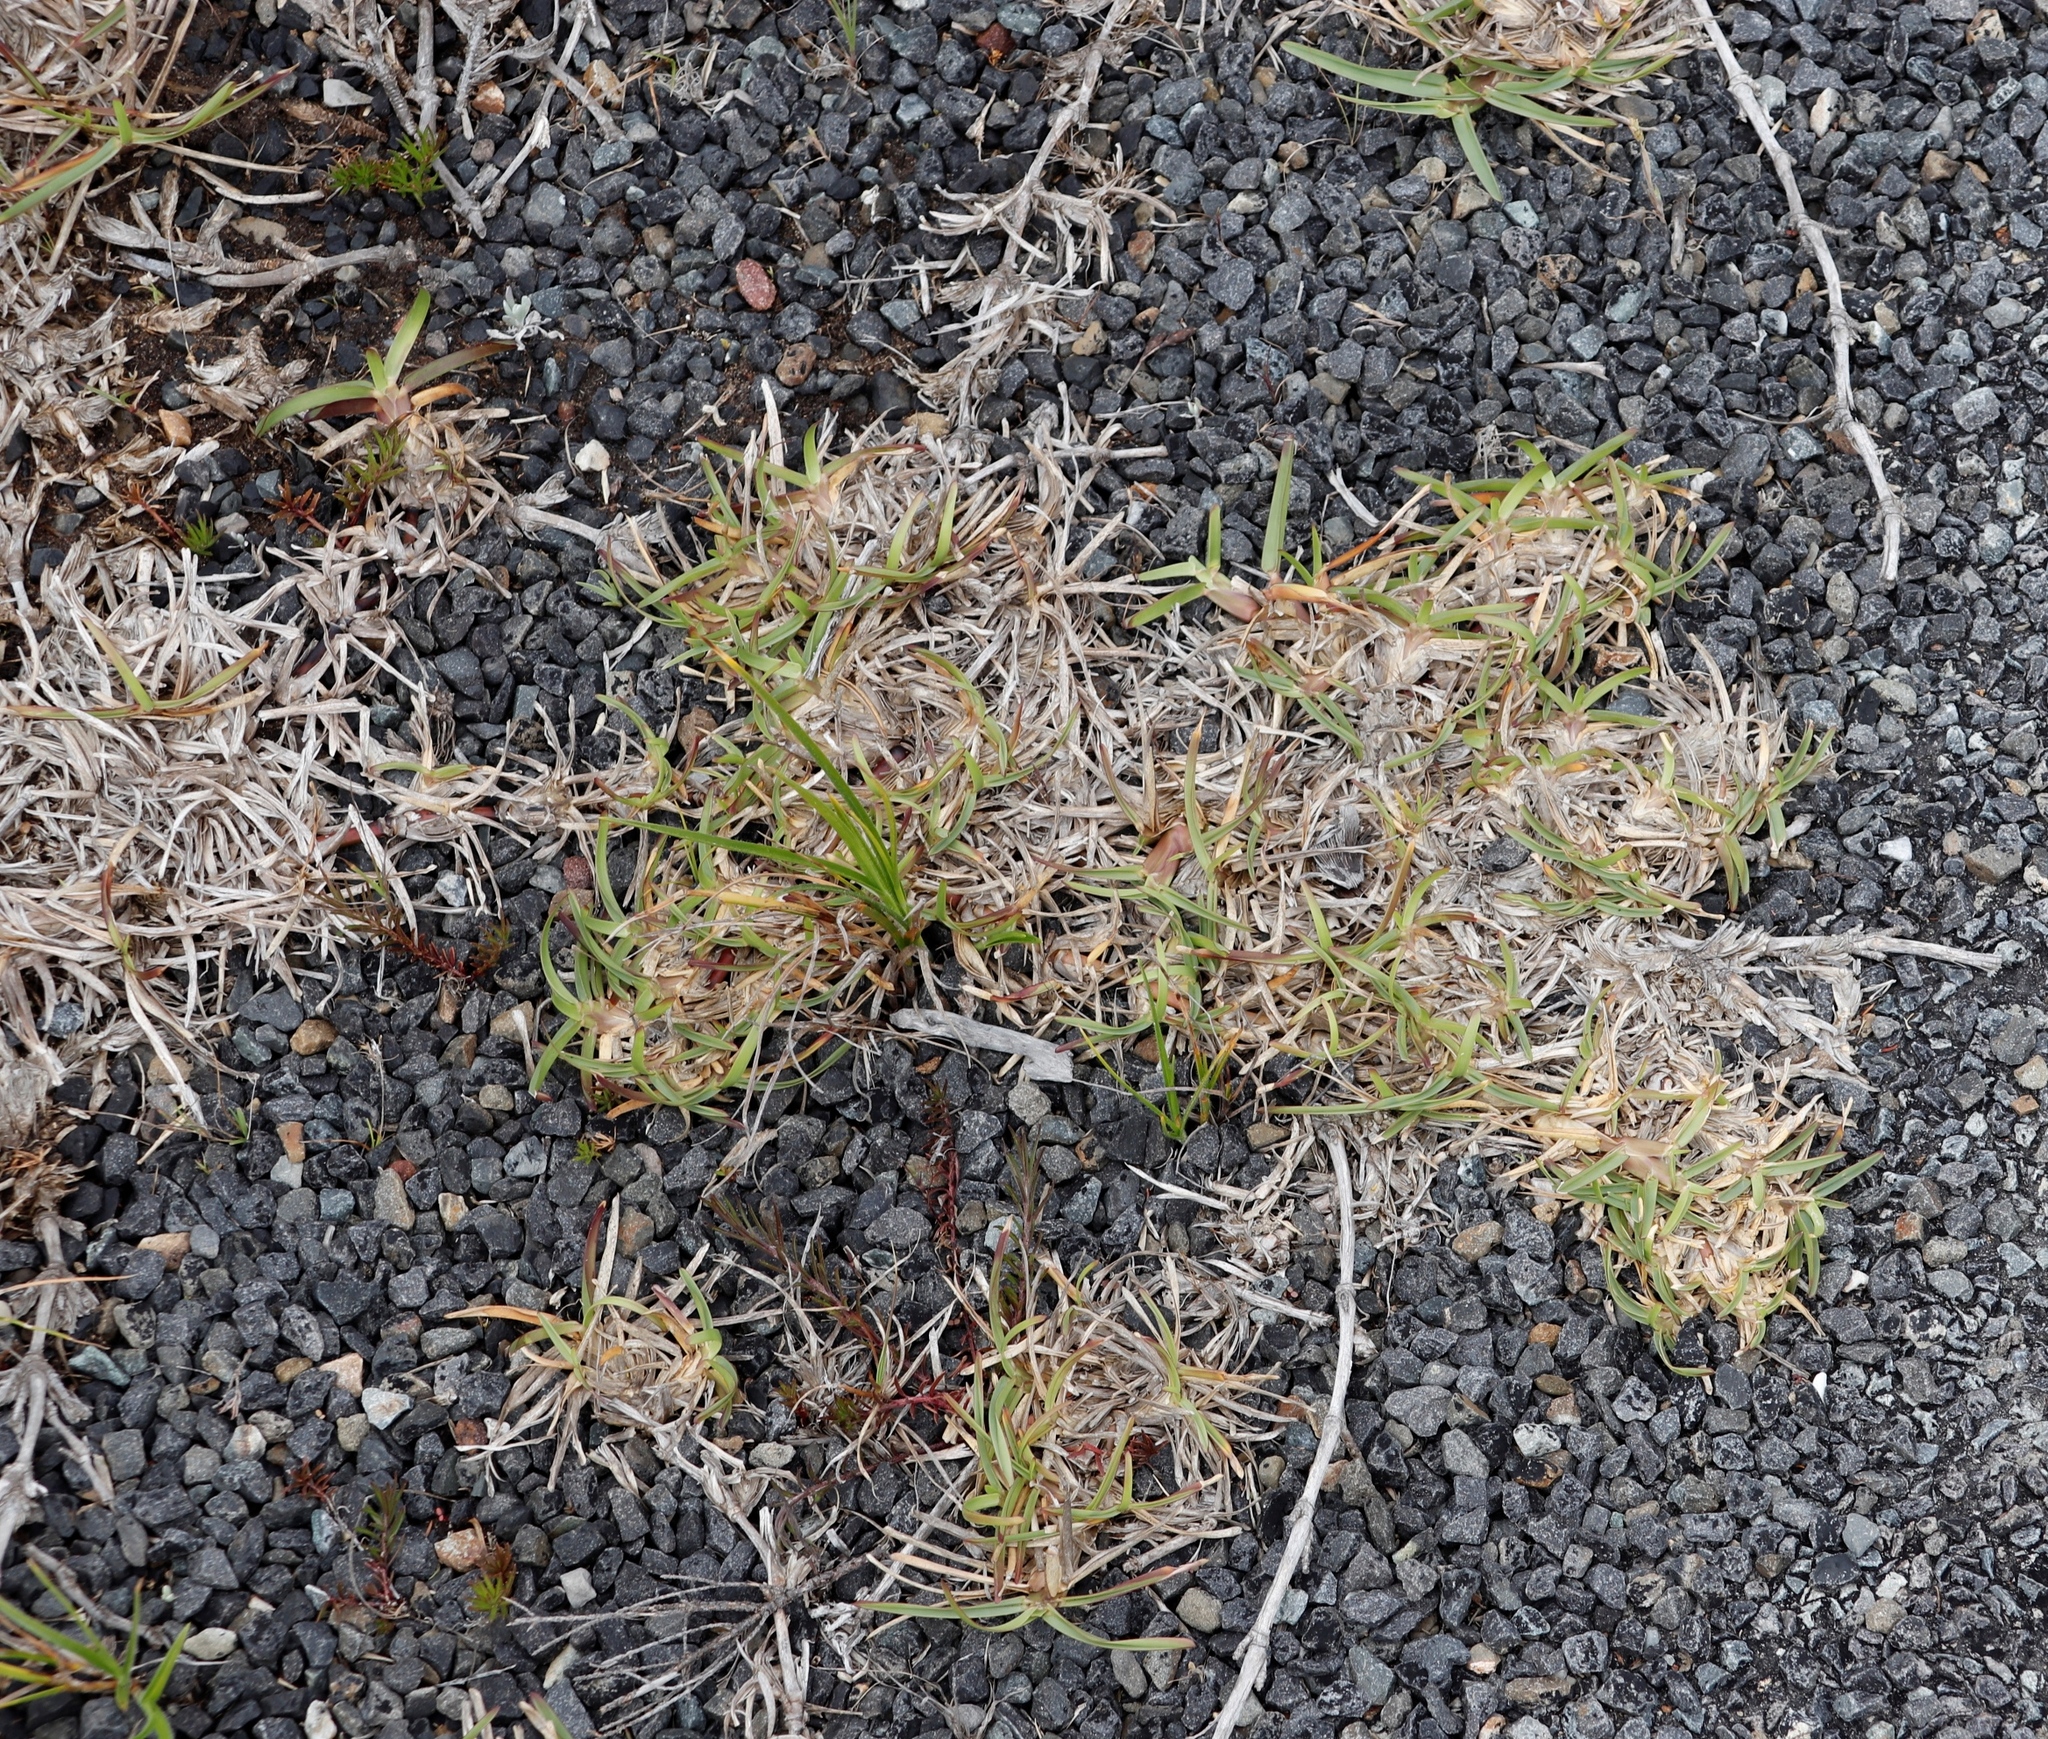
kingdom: Plantae
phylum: Tracheophyta
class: Liliopsida
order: Poales
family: Poaceae
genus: Stenotaphrum
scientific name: Stenotaphrum secundatum
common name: St. augustine grass
